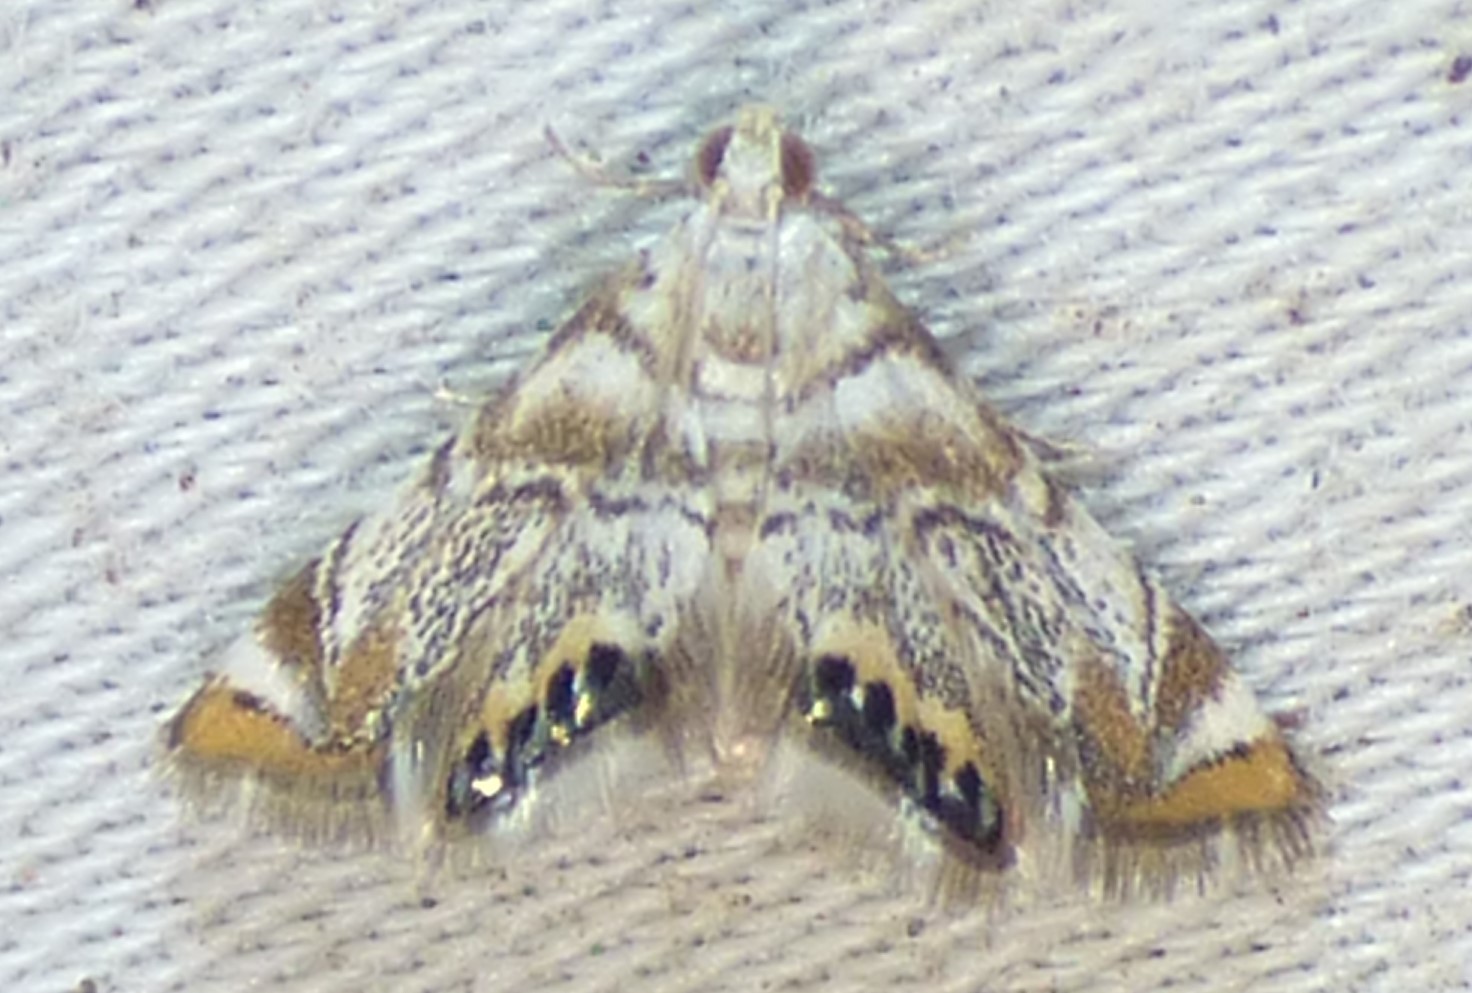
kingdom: Animalia
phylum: Arthropoda
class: Insecta
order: Lepidoptera
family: Crambidae
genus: Eoparargyractis
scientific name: Eoparargyractis irroratalis
